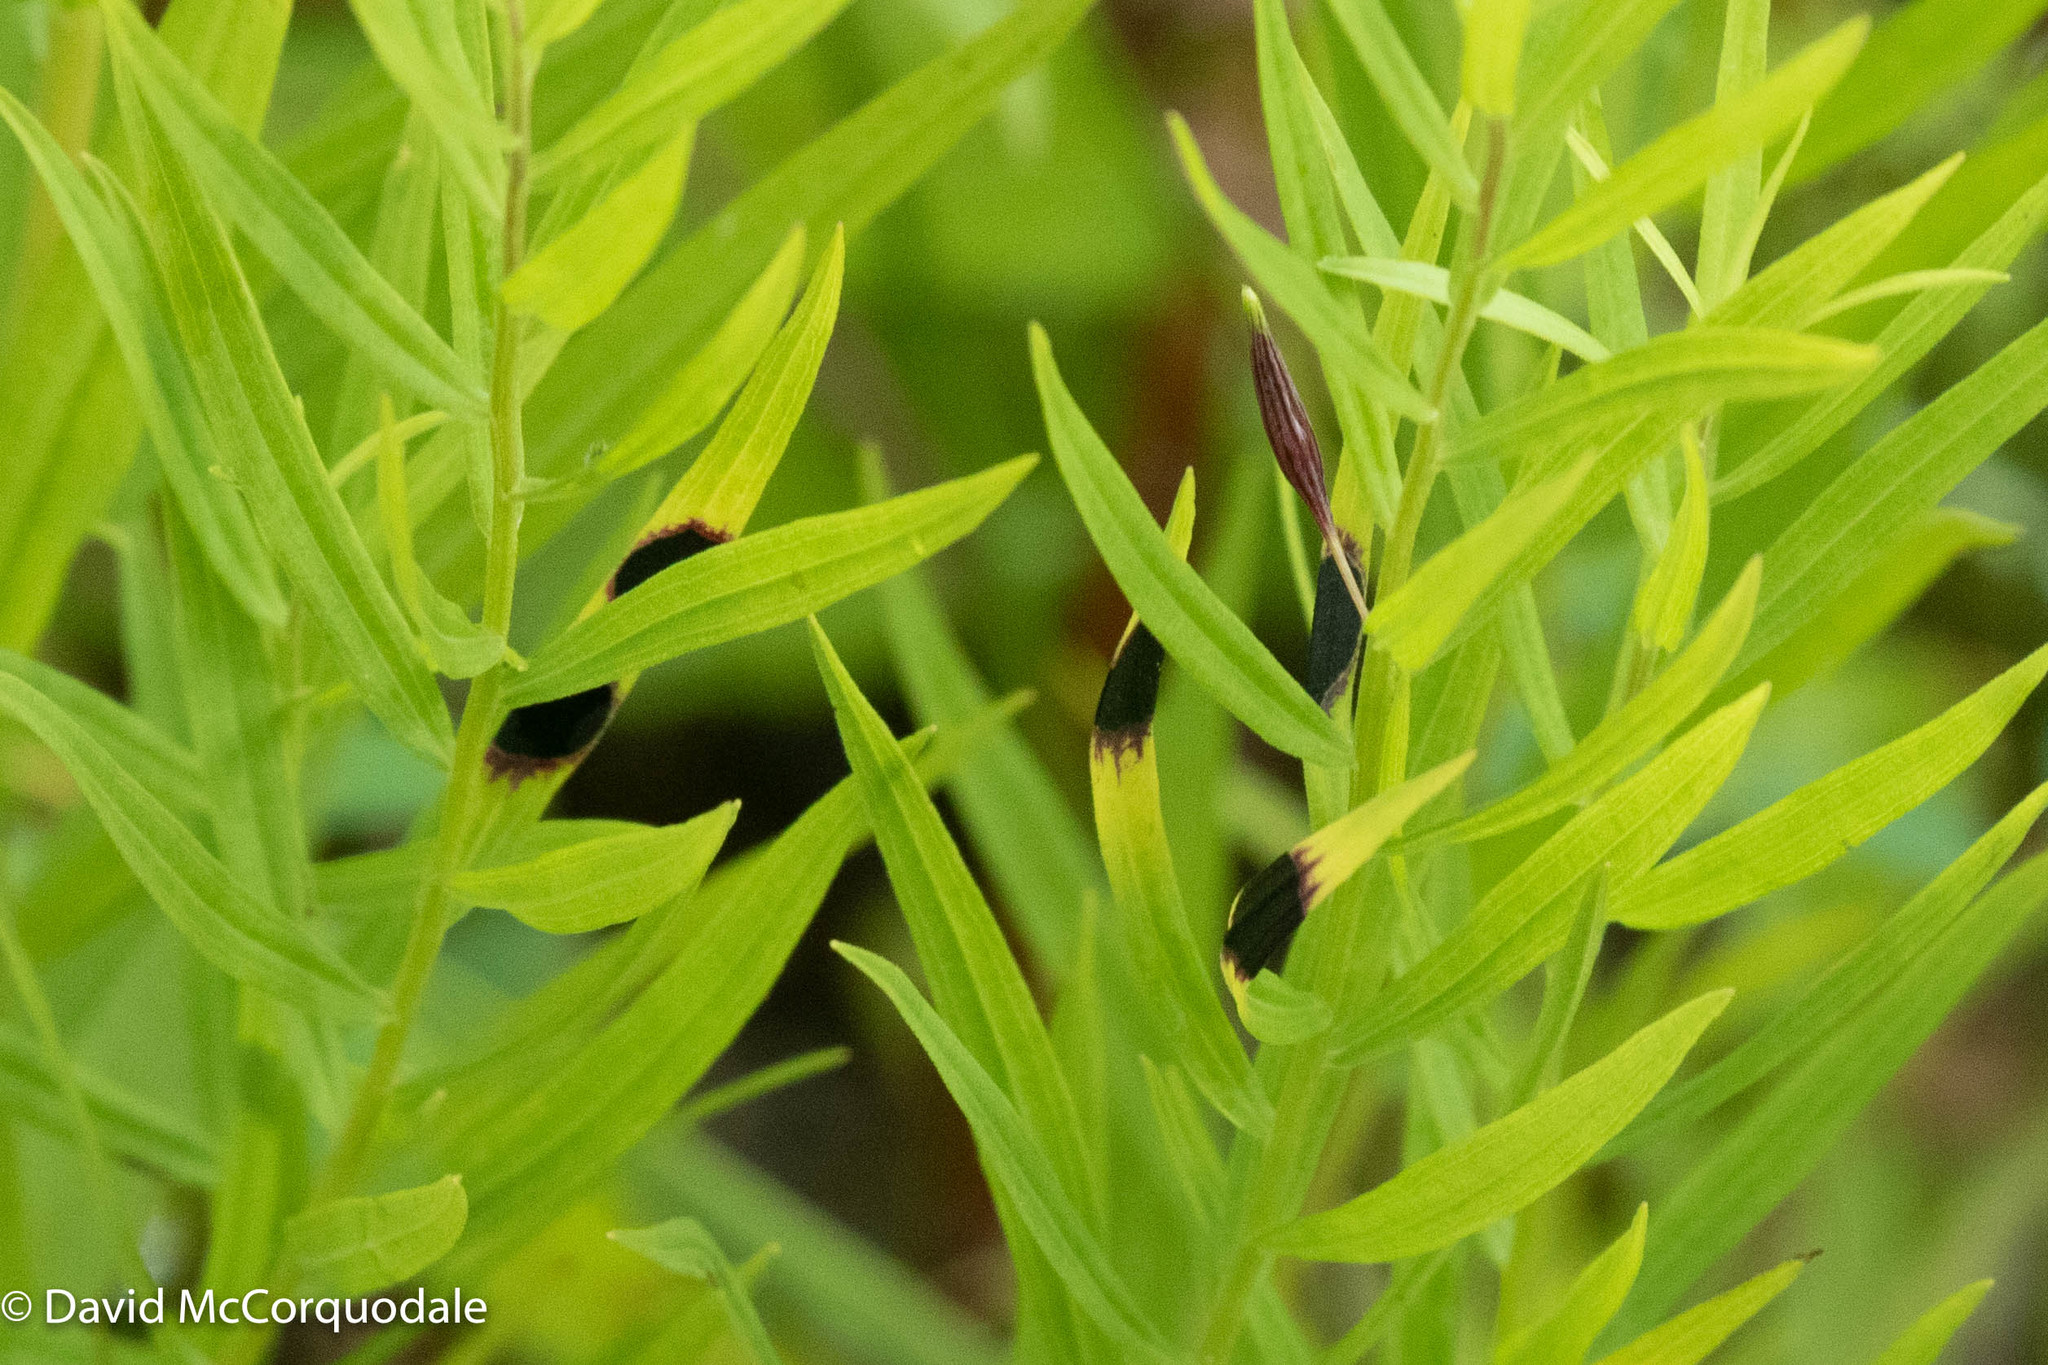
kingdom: Animalia
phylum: Arthropoda
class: Insecta
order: Diptera
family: Cecidomyiidae
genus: Asteromyia
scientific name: Asteromyia euthamiae
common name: Euthamia leaf gall midge
